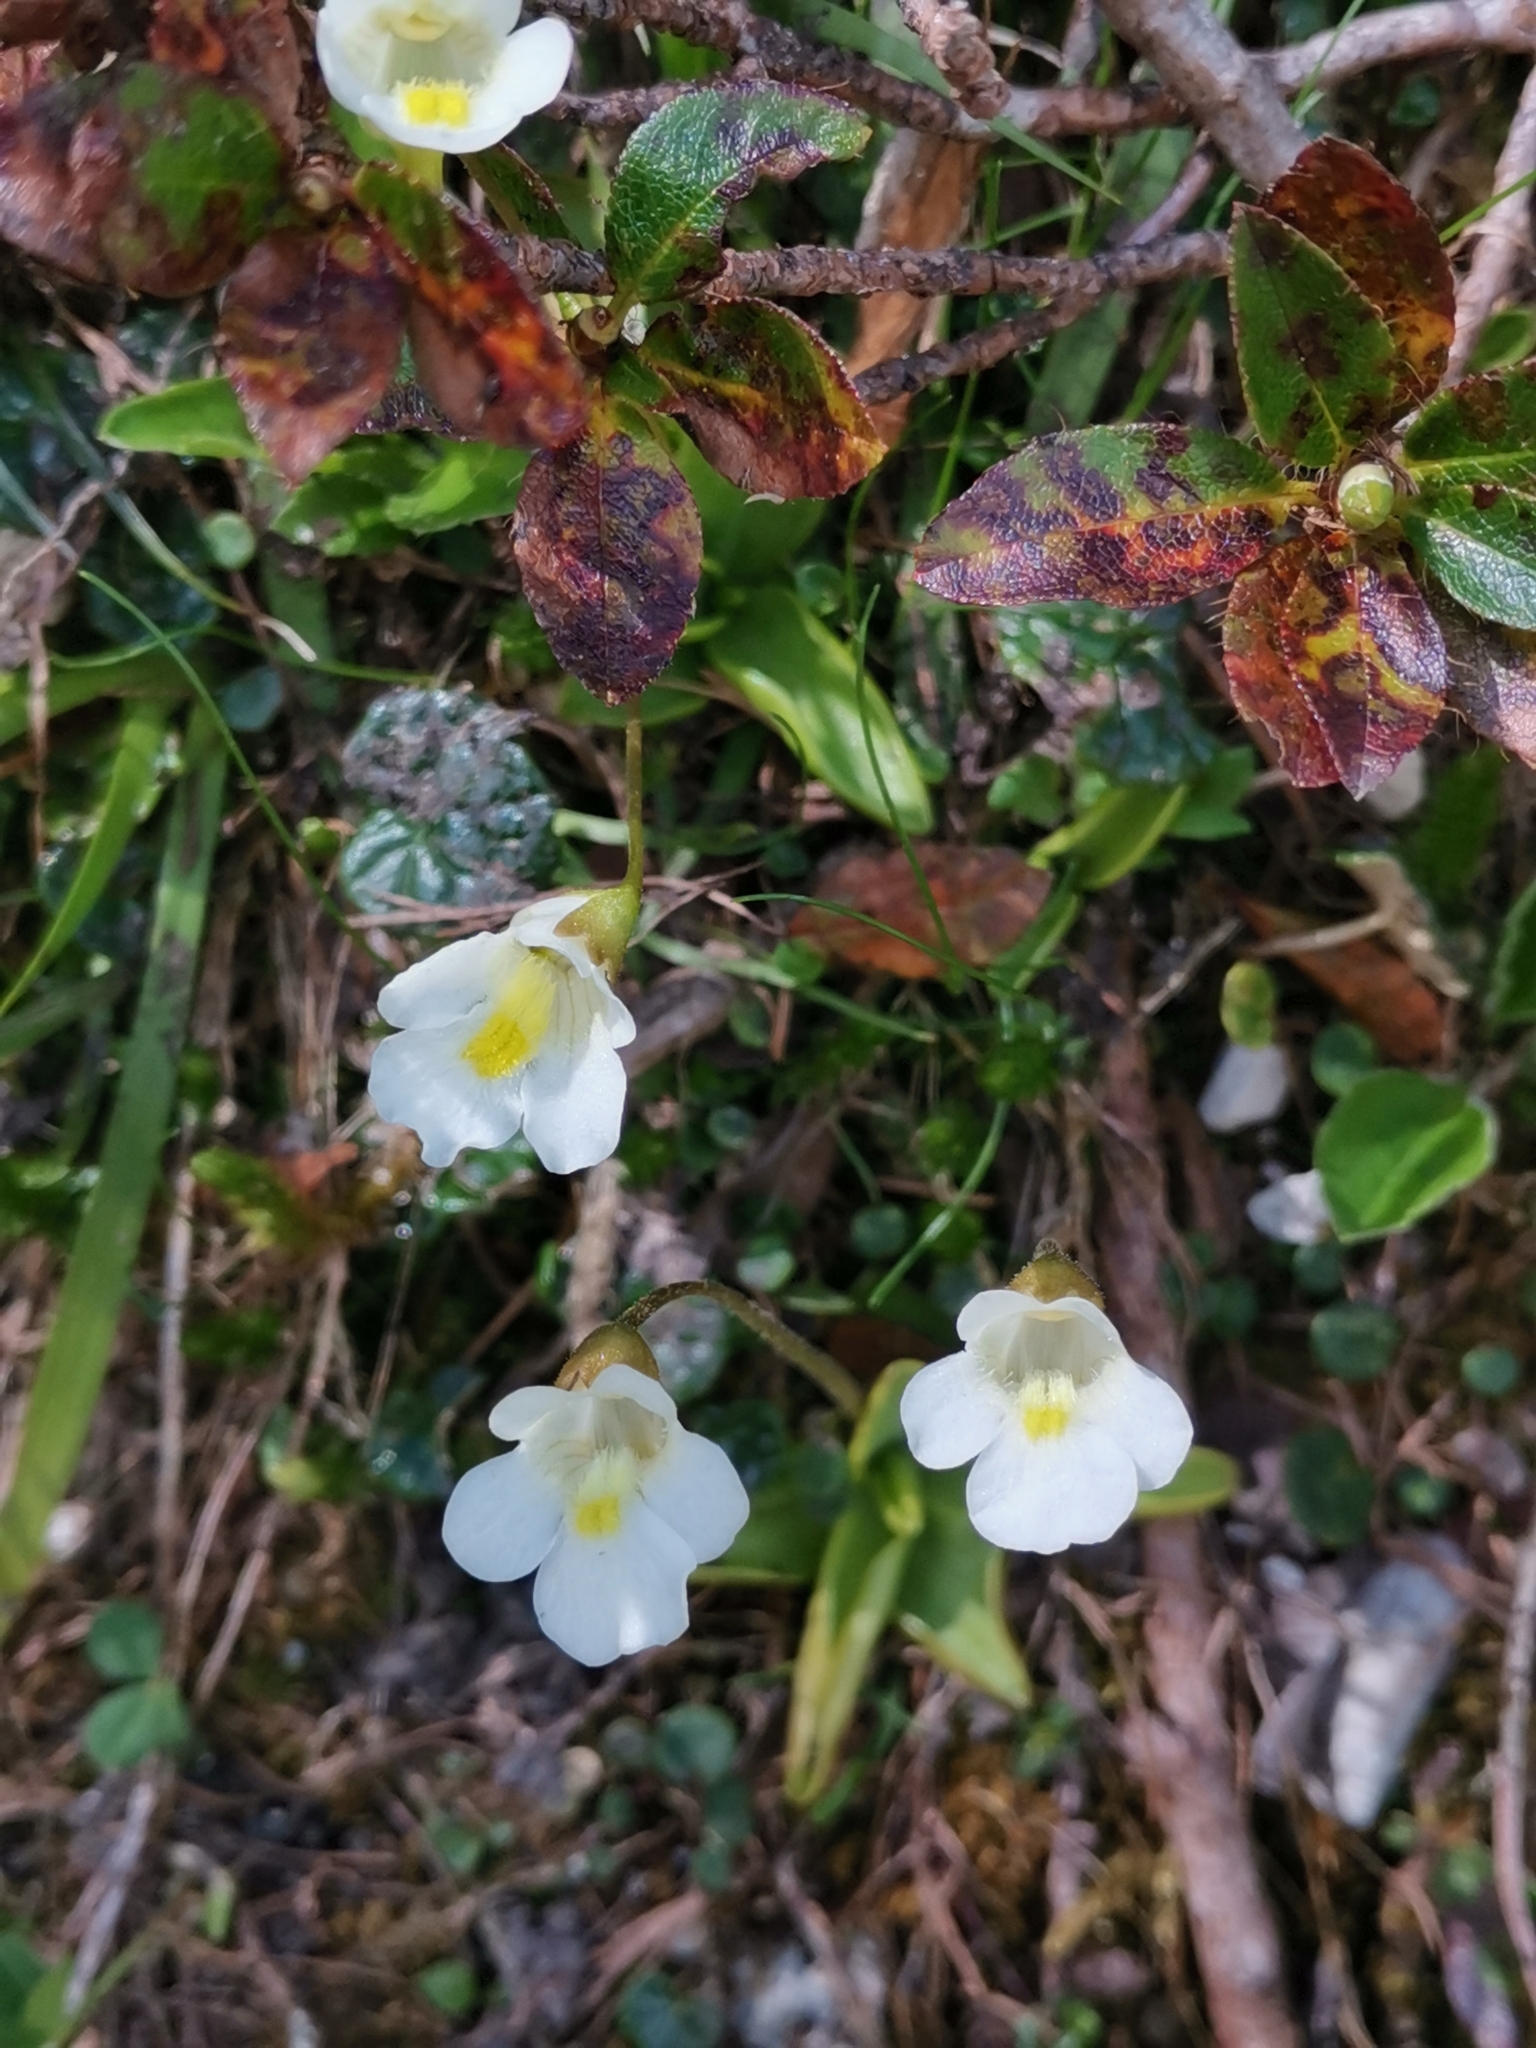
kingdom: Plantae
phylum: Tracheophyta
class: Magnoliopsida
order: Lamiales
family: Lentibulariaceae
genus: Pinguicula
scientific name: Pinguicula alpina
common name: Alpine butterwort
